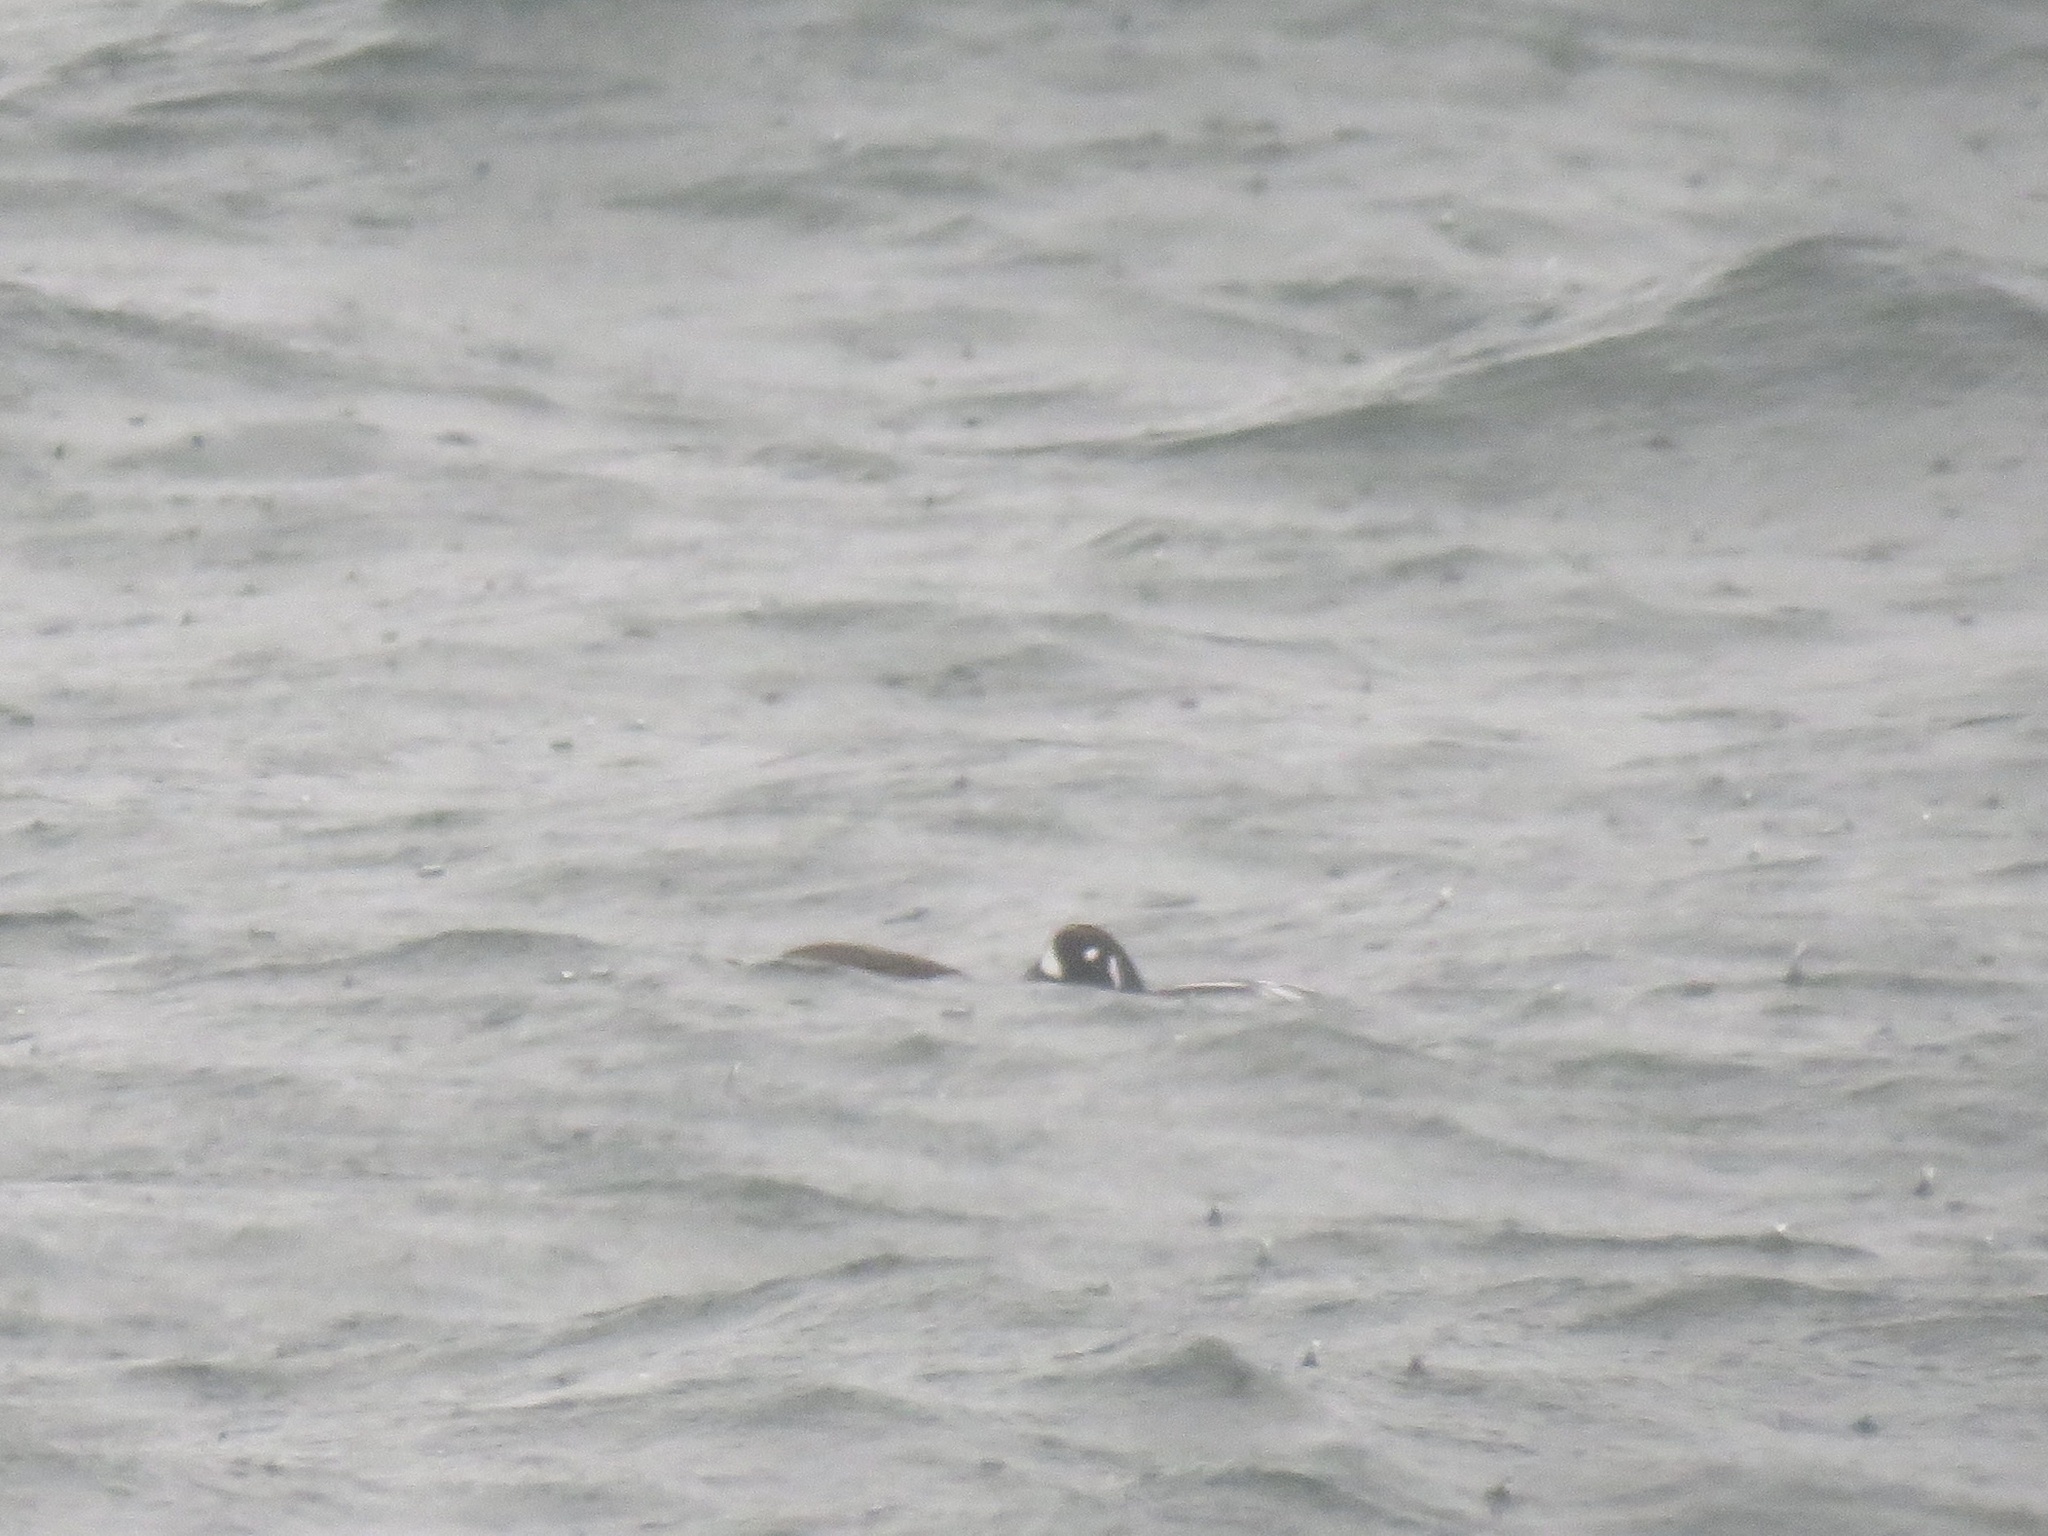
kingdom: Animalia
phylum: Chordata
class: Aves
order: Anseriformes
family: Anatidae
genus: Histrionicus
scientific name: Histrionicus histrionicus
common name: Harlequin duck
